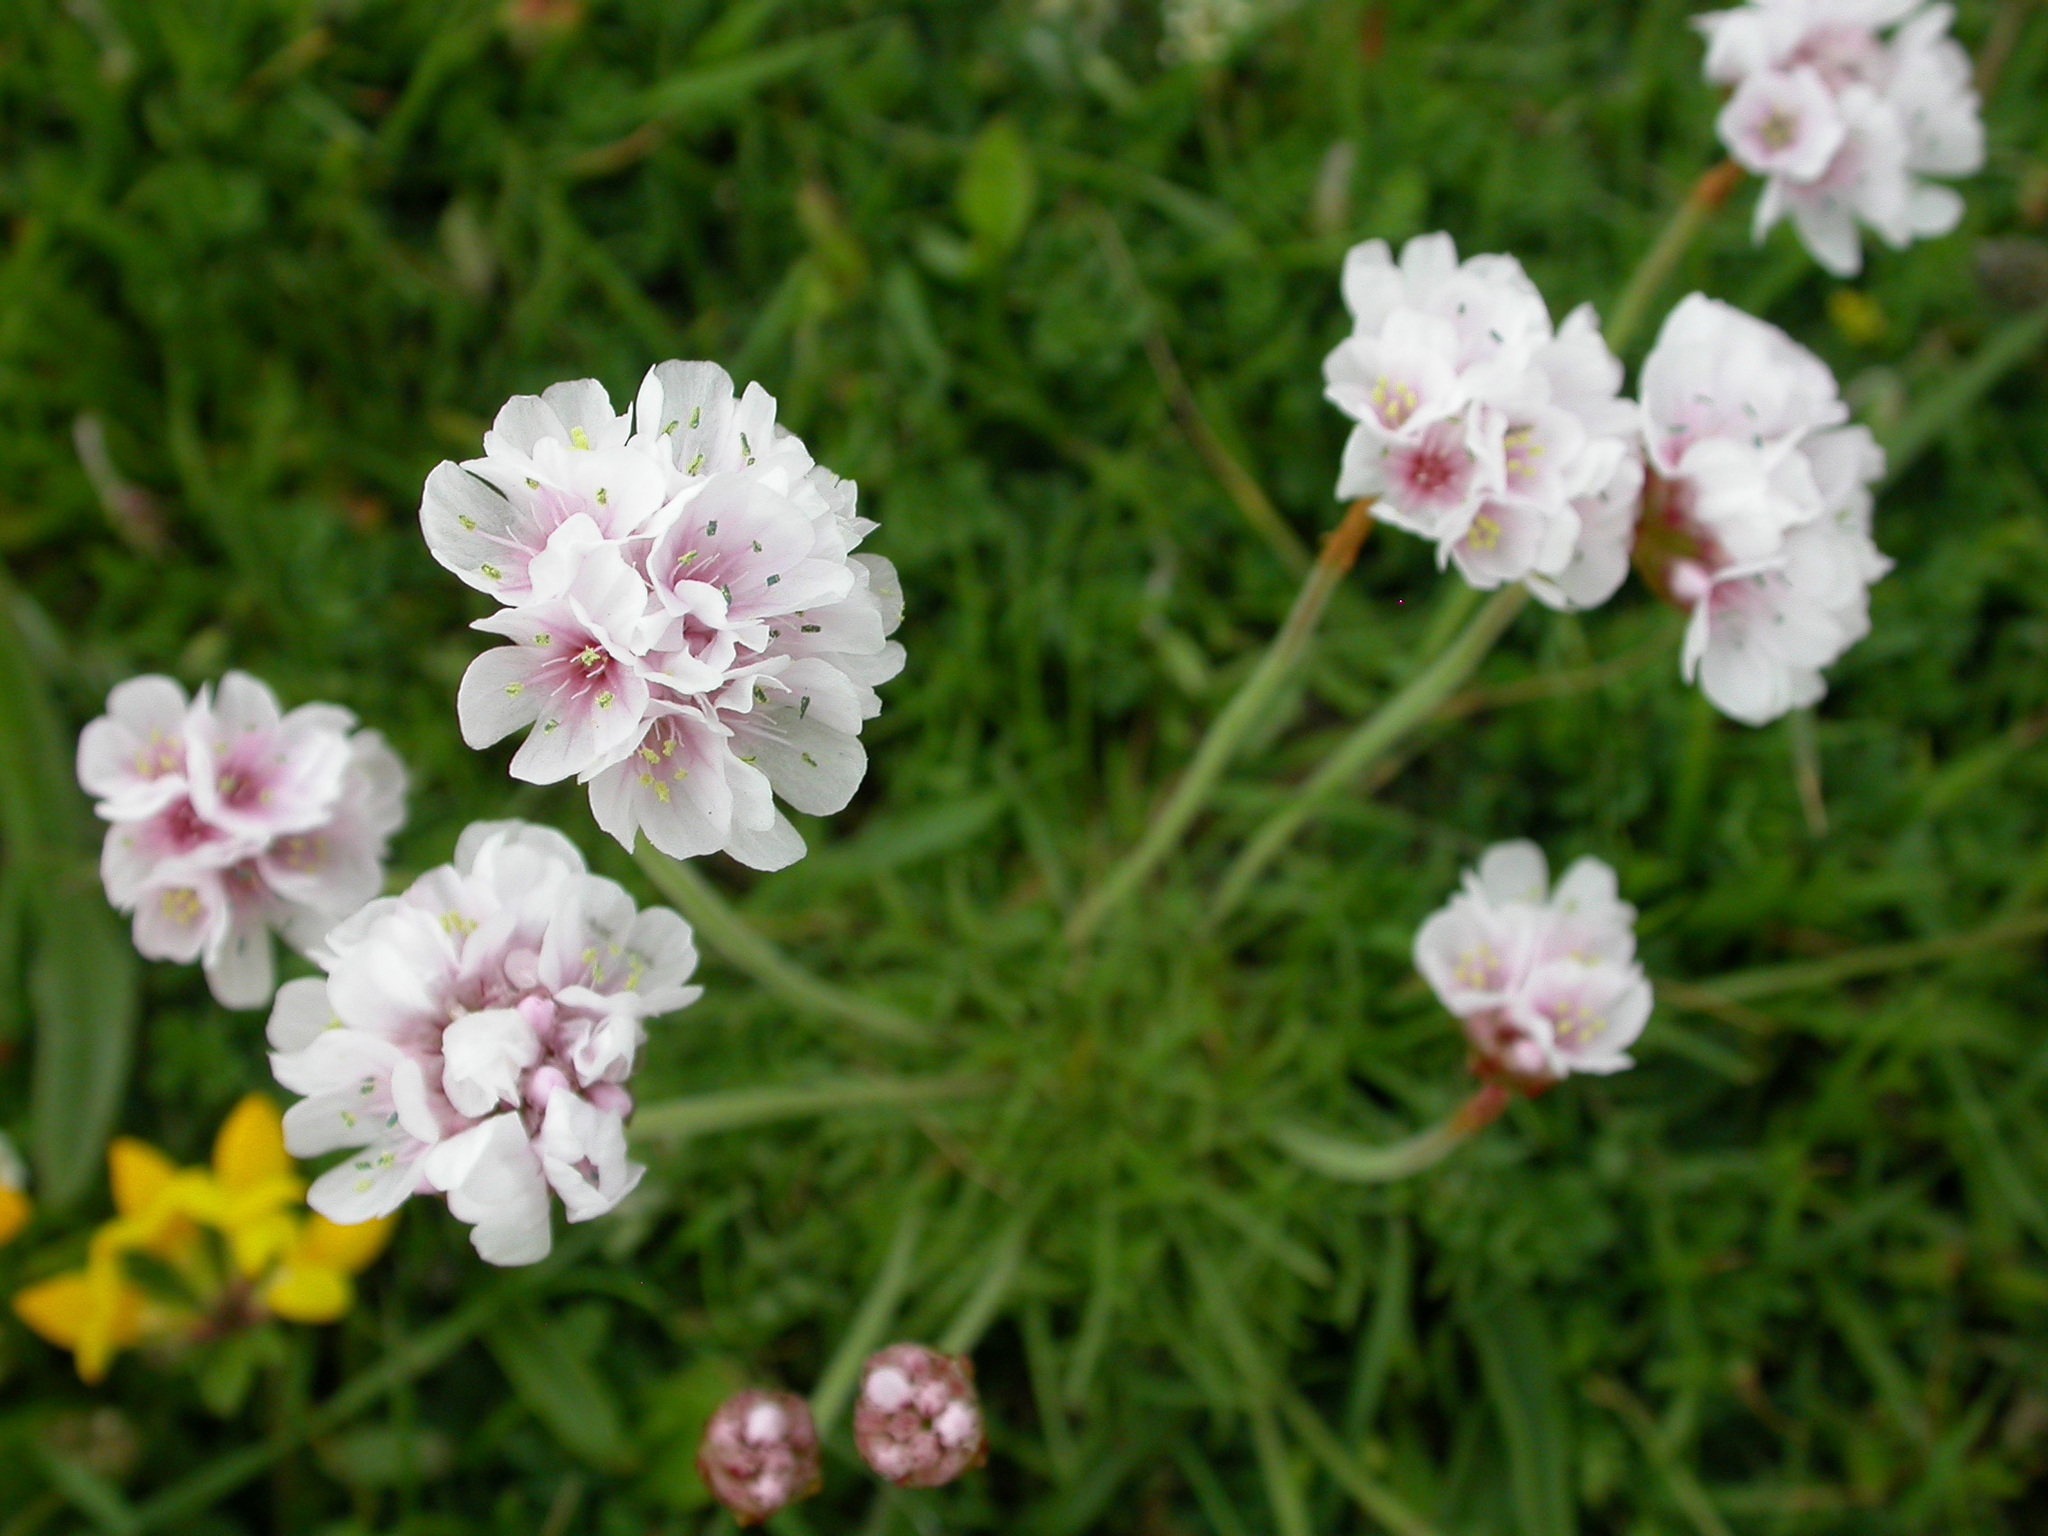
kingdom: Plantae
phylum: Tracheophyta
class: Magnoliopsida
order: Caryophyllales
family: Plumbaginaceae
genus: Armeria
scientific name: Armeria maritima
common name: Thrift
